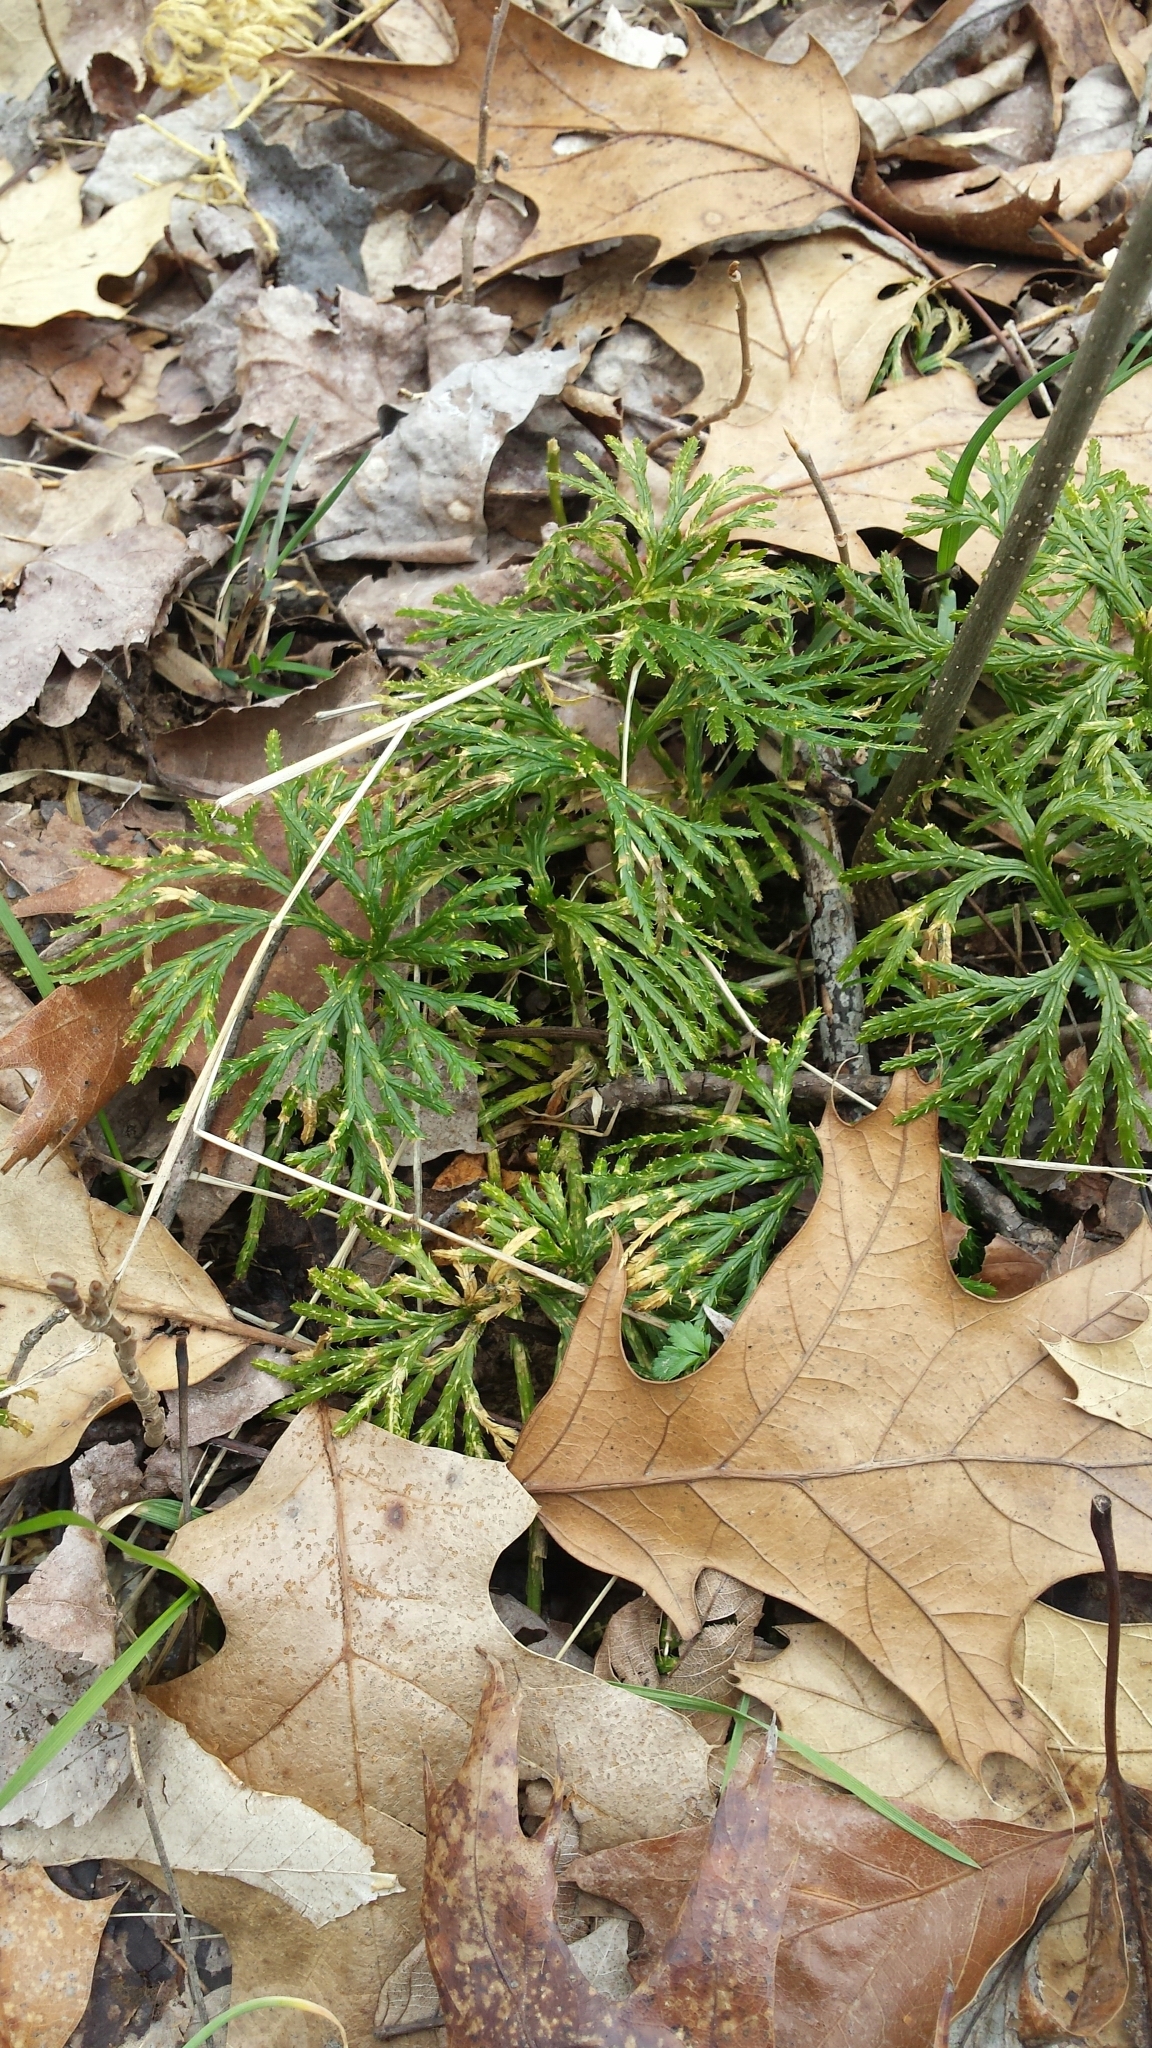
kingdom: Plantae
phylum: Tracheophyta
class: Lycopodiopsida
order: Lycopodiales
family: Lycopodiaceae
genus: Diphasiastrum
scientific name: Diphasiastrum digitatum
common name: Southern running-pine
